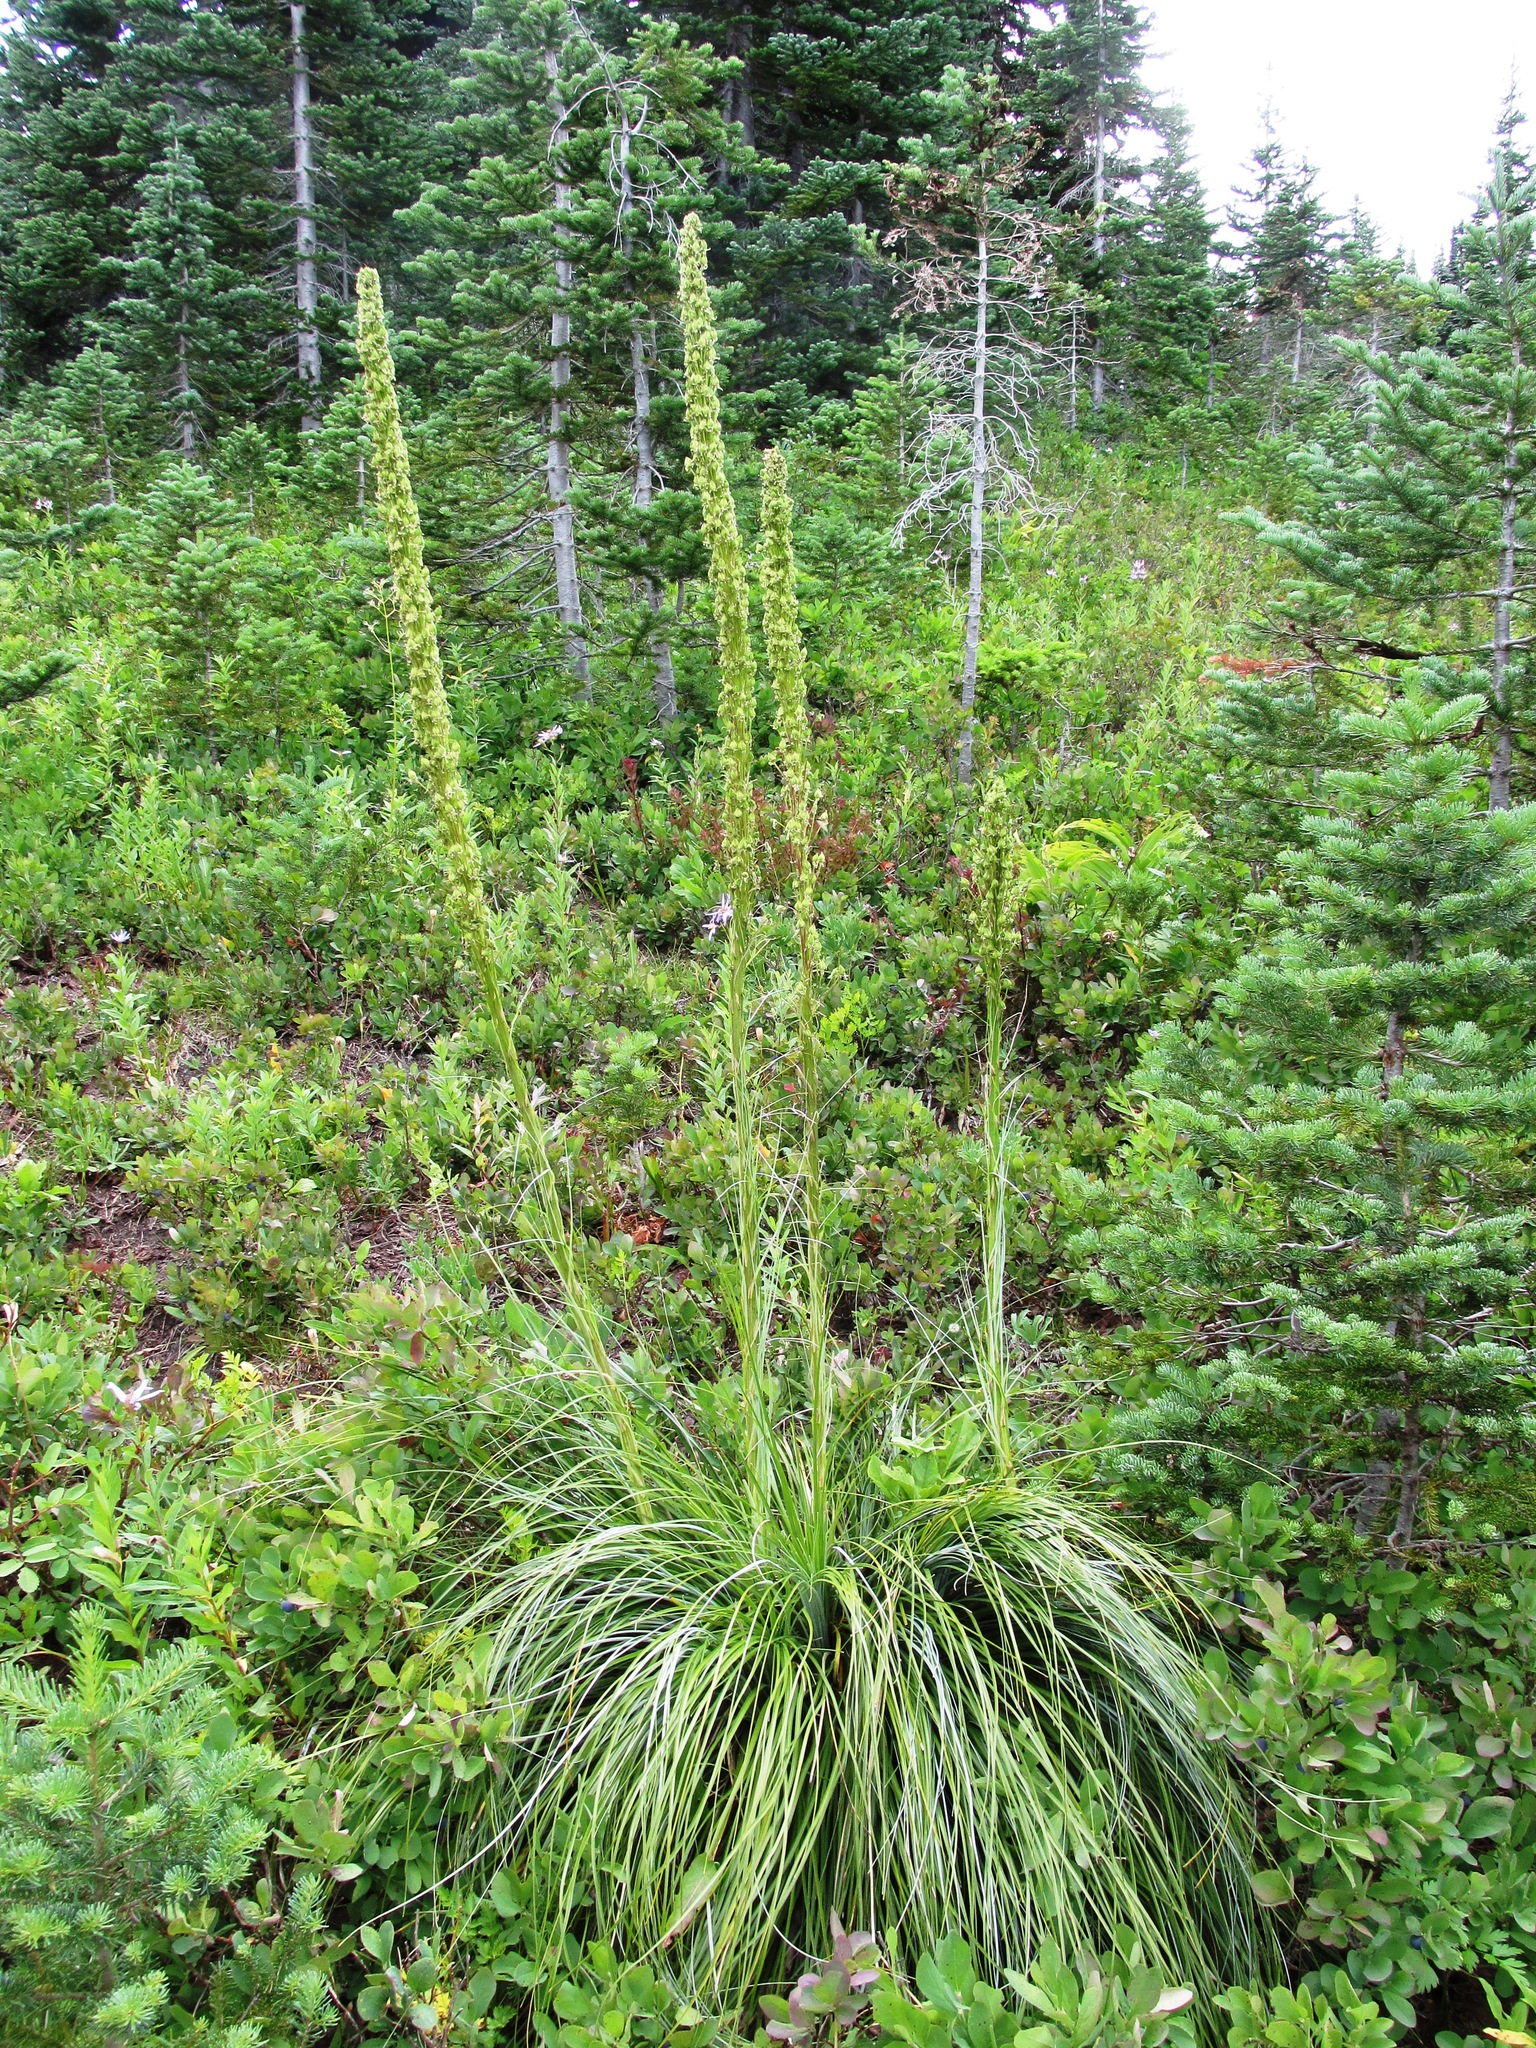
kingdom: Plantae
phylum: Tracheophyta
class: Liliopsida
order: Liliales
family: Melanthiaceae
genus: Xerophyllum
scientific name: Xerophyllum tenax
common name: Bear-grass
